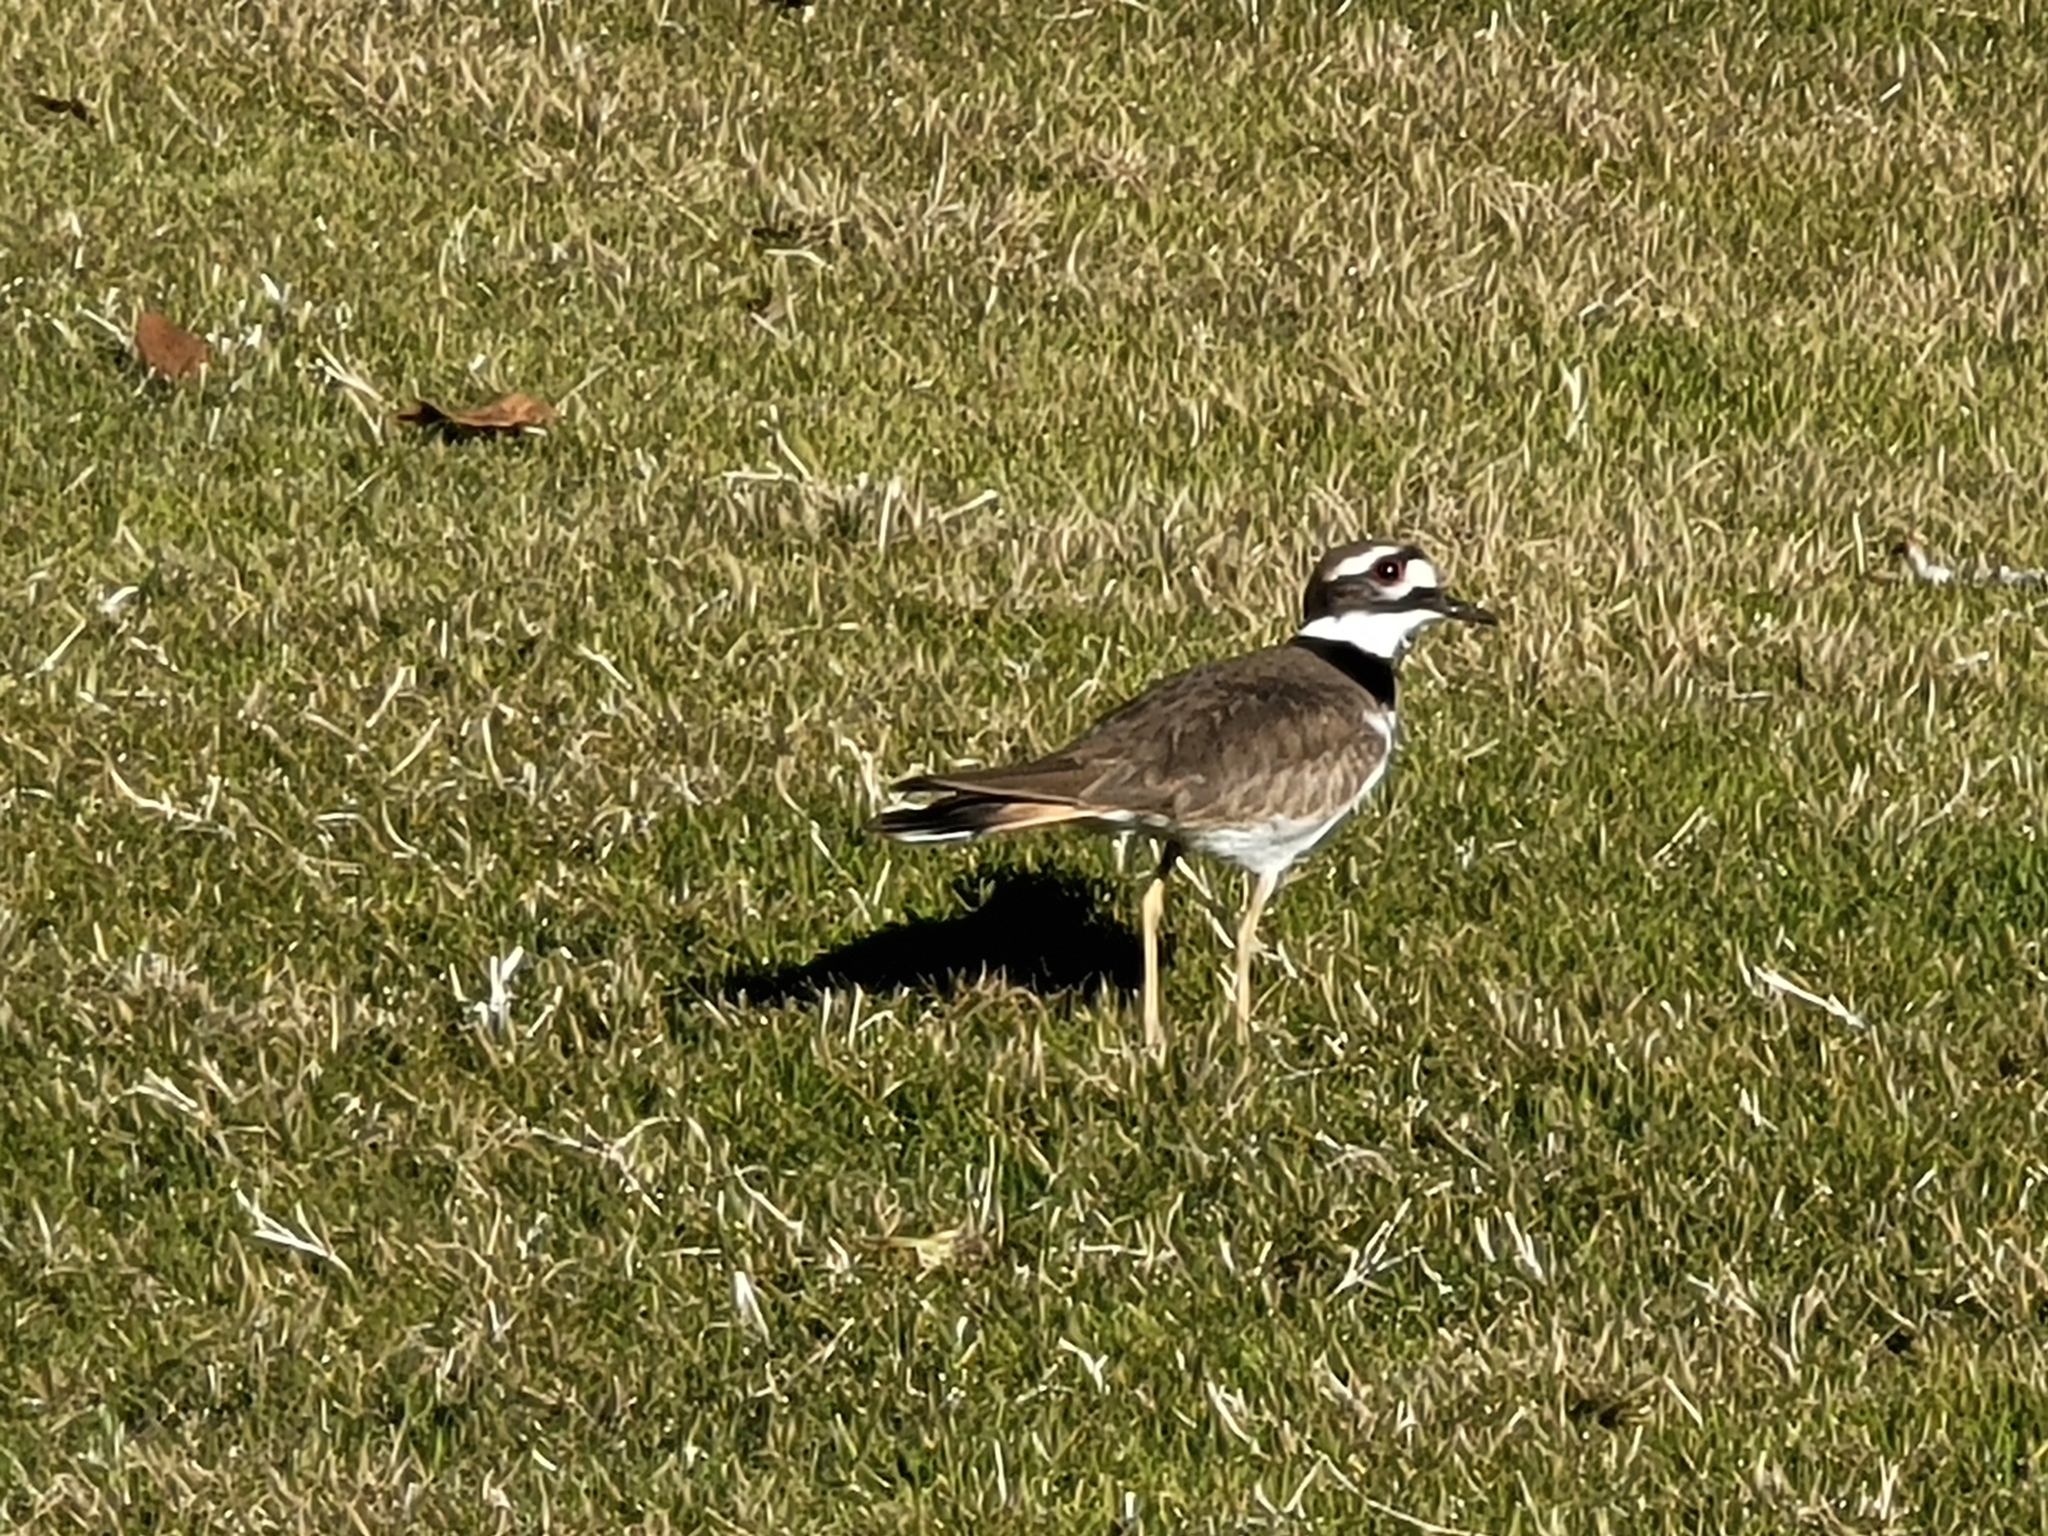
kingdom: Animalia
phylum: Chordata
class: Aves
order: Charadriiformes
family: Charadriidae
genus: Charadrius
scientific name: Charadrius vociferus
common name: Killdeer
